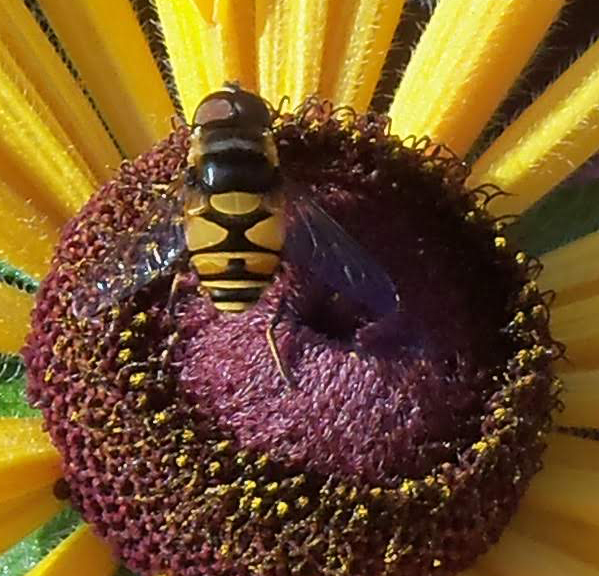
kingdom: Animalia
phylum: Arthropoda
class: Insecta
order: Diptera
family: Syrphidae
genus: Eristalis
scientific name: Eristalis transversa
